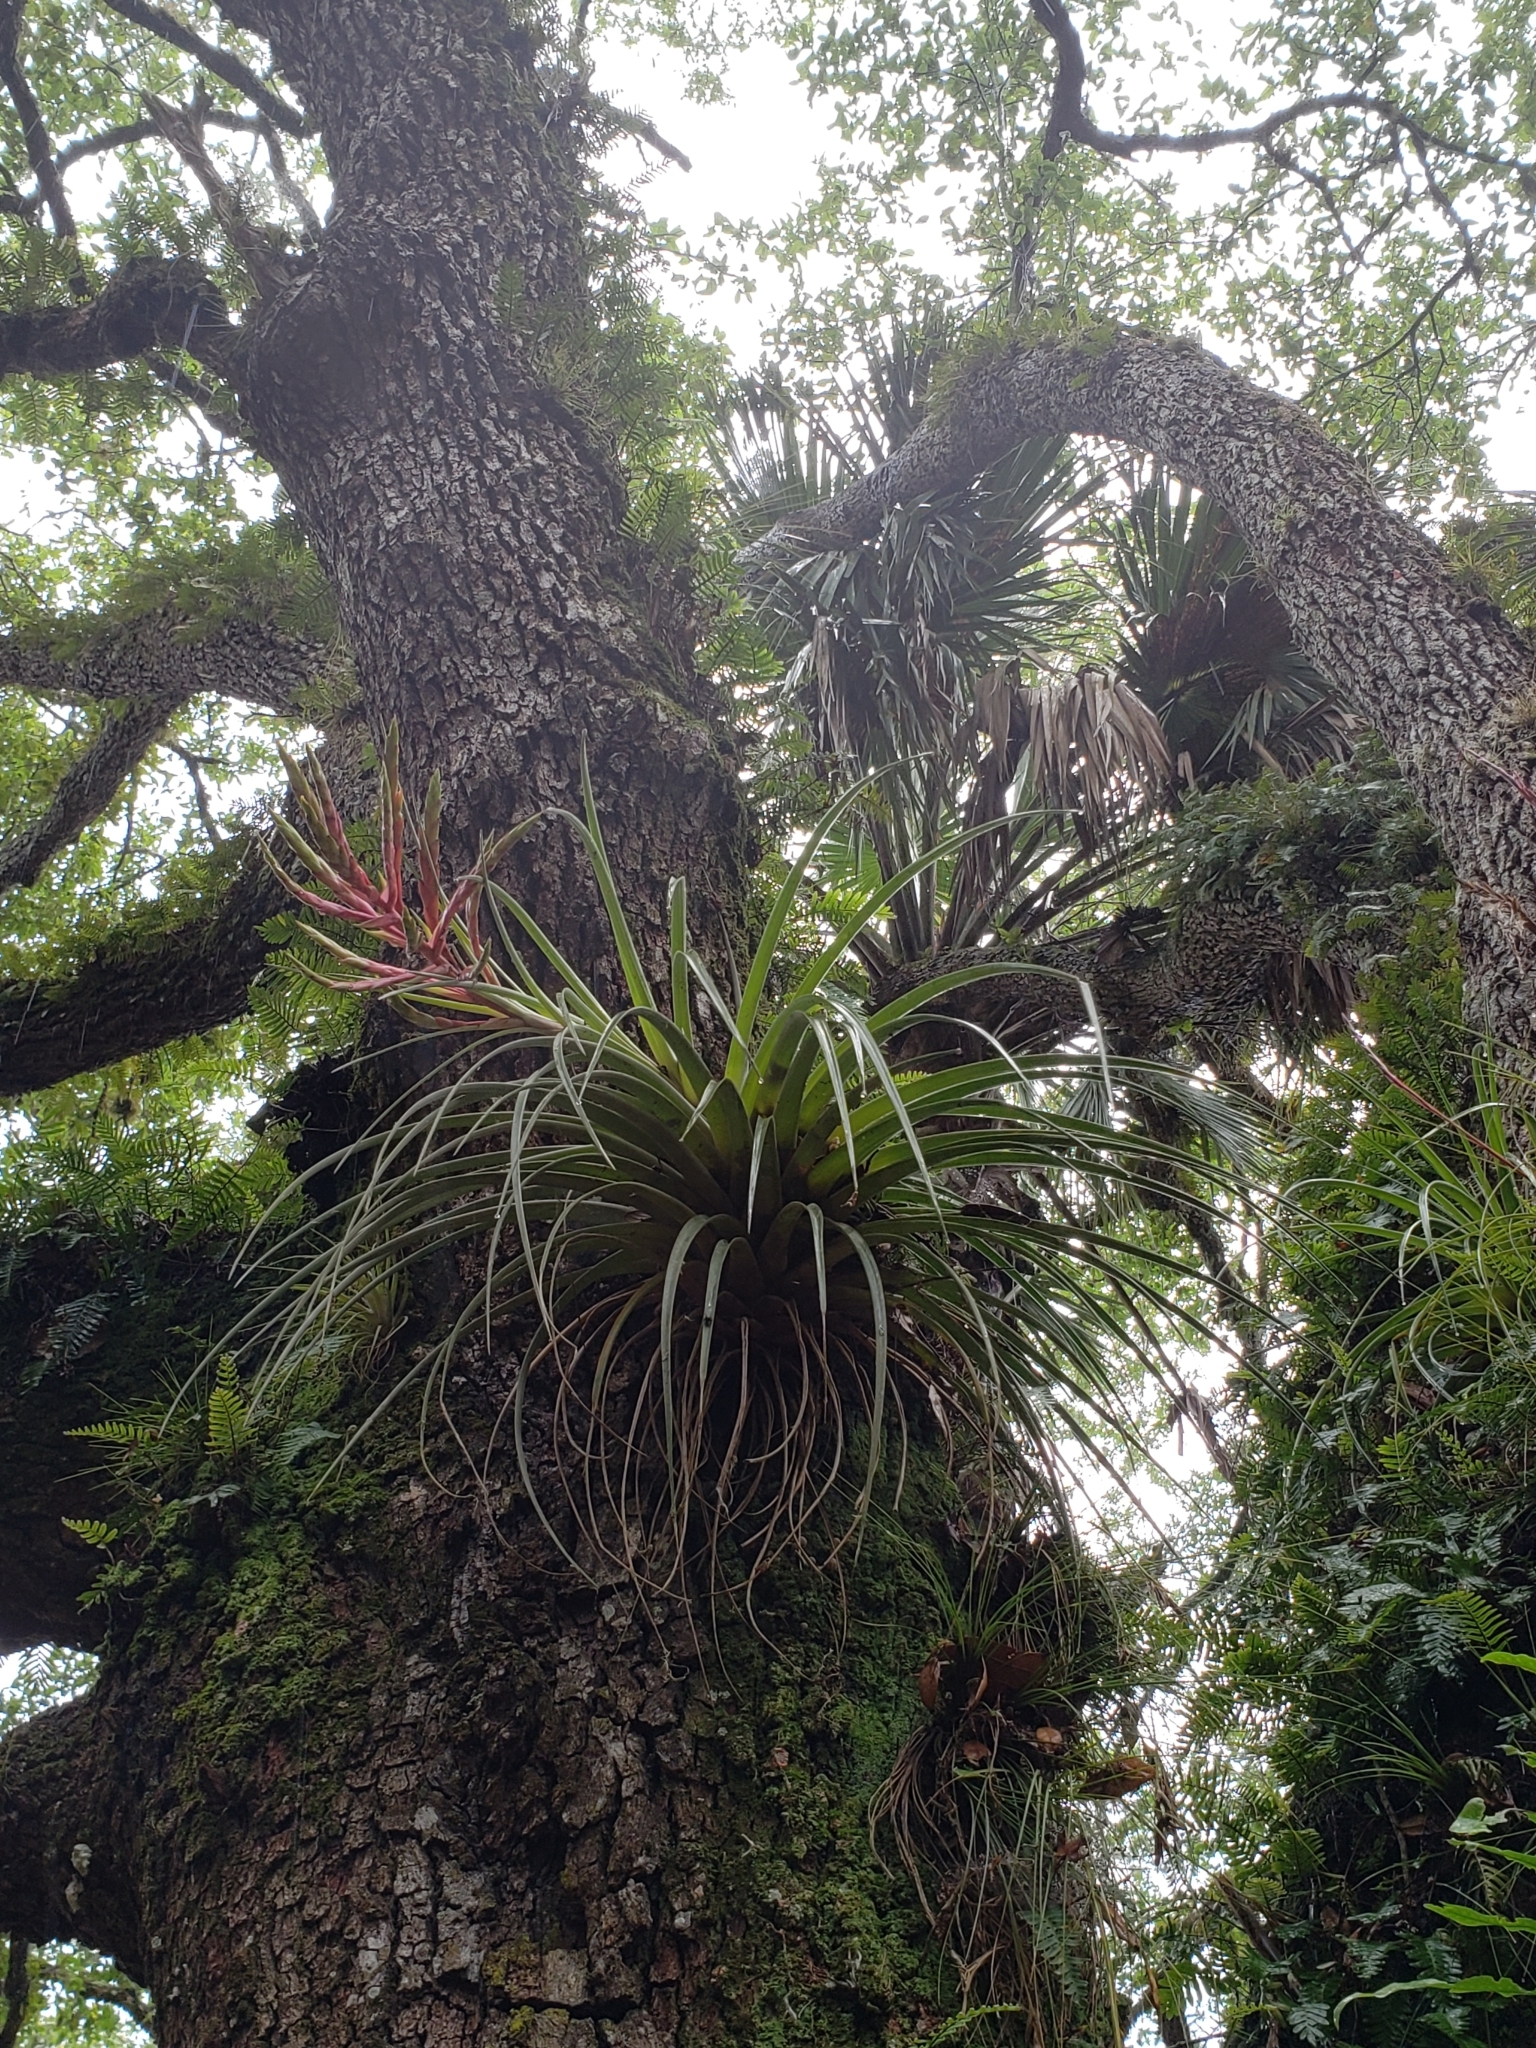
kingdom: Plantae
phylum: Tracheophyta
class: Liliopsida
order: Poales
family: Bromeliaceae
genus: Tillandsia
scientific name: Tillandsia fasciculata
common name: Giant airplant
